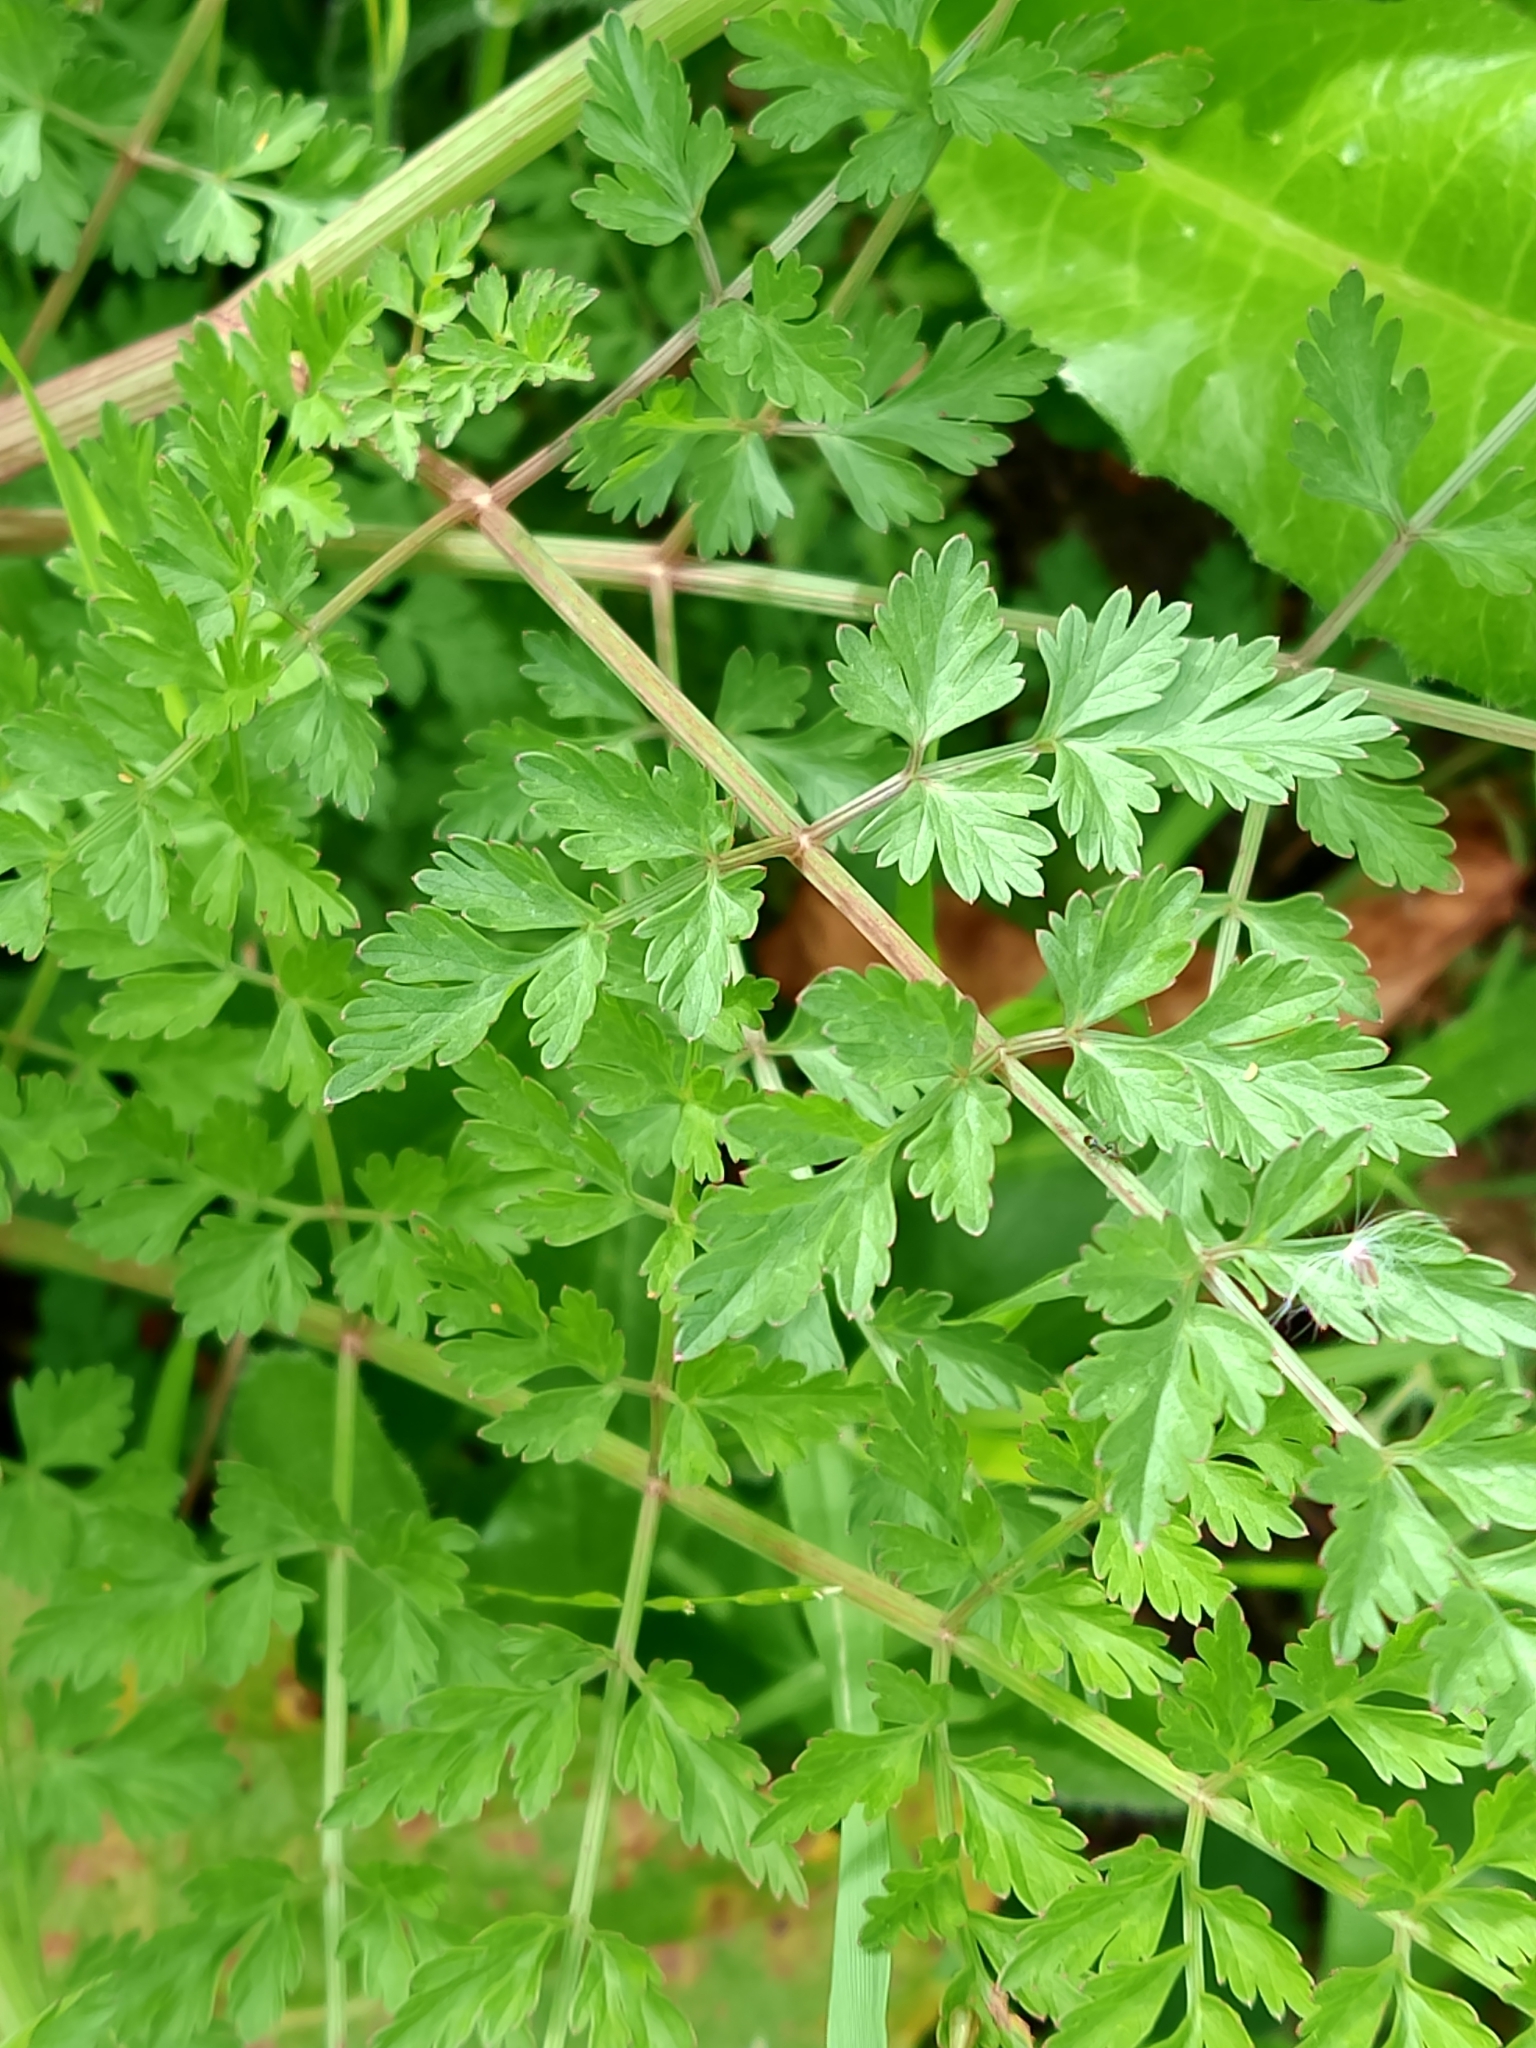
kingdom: Plantae
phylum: Tracheophyta
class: Magnoliopsida
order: Apiales
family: Apiaceae
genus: Oenanthe
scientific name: Oenanthe crocata
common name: Hemlock water-dropwort
